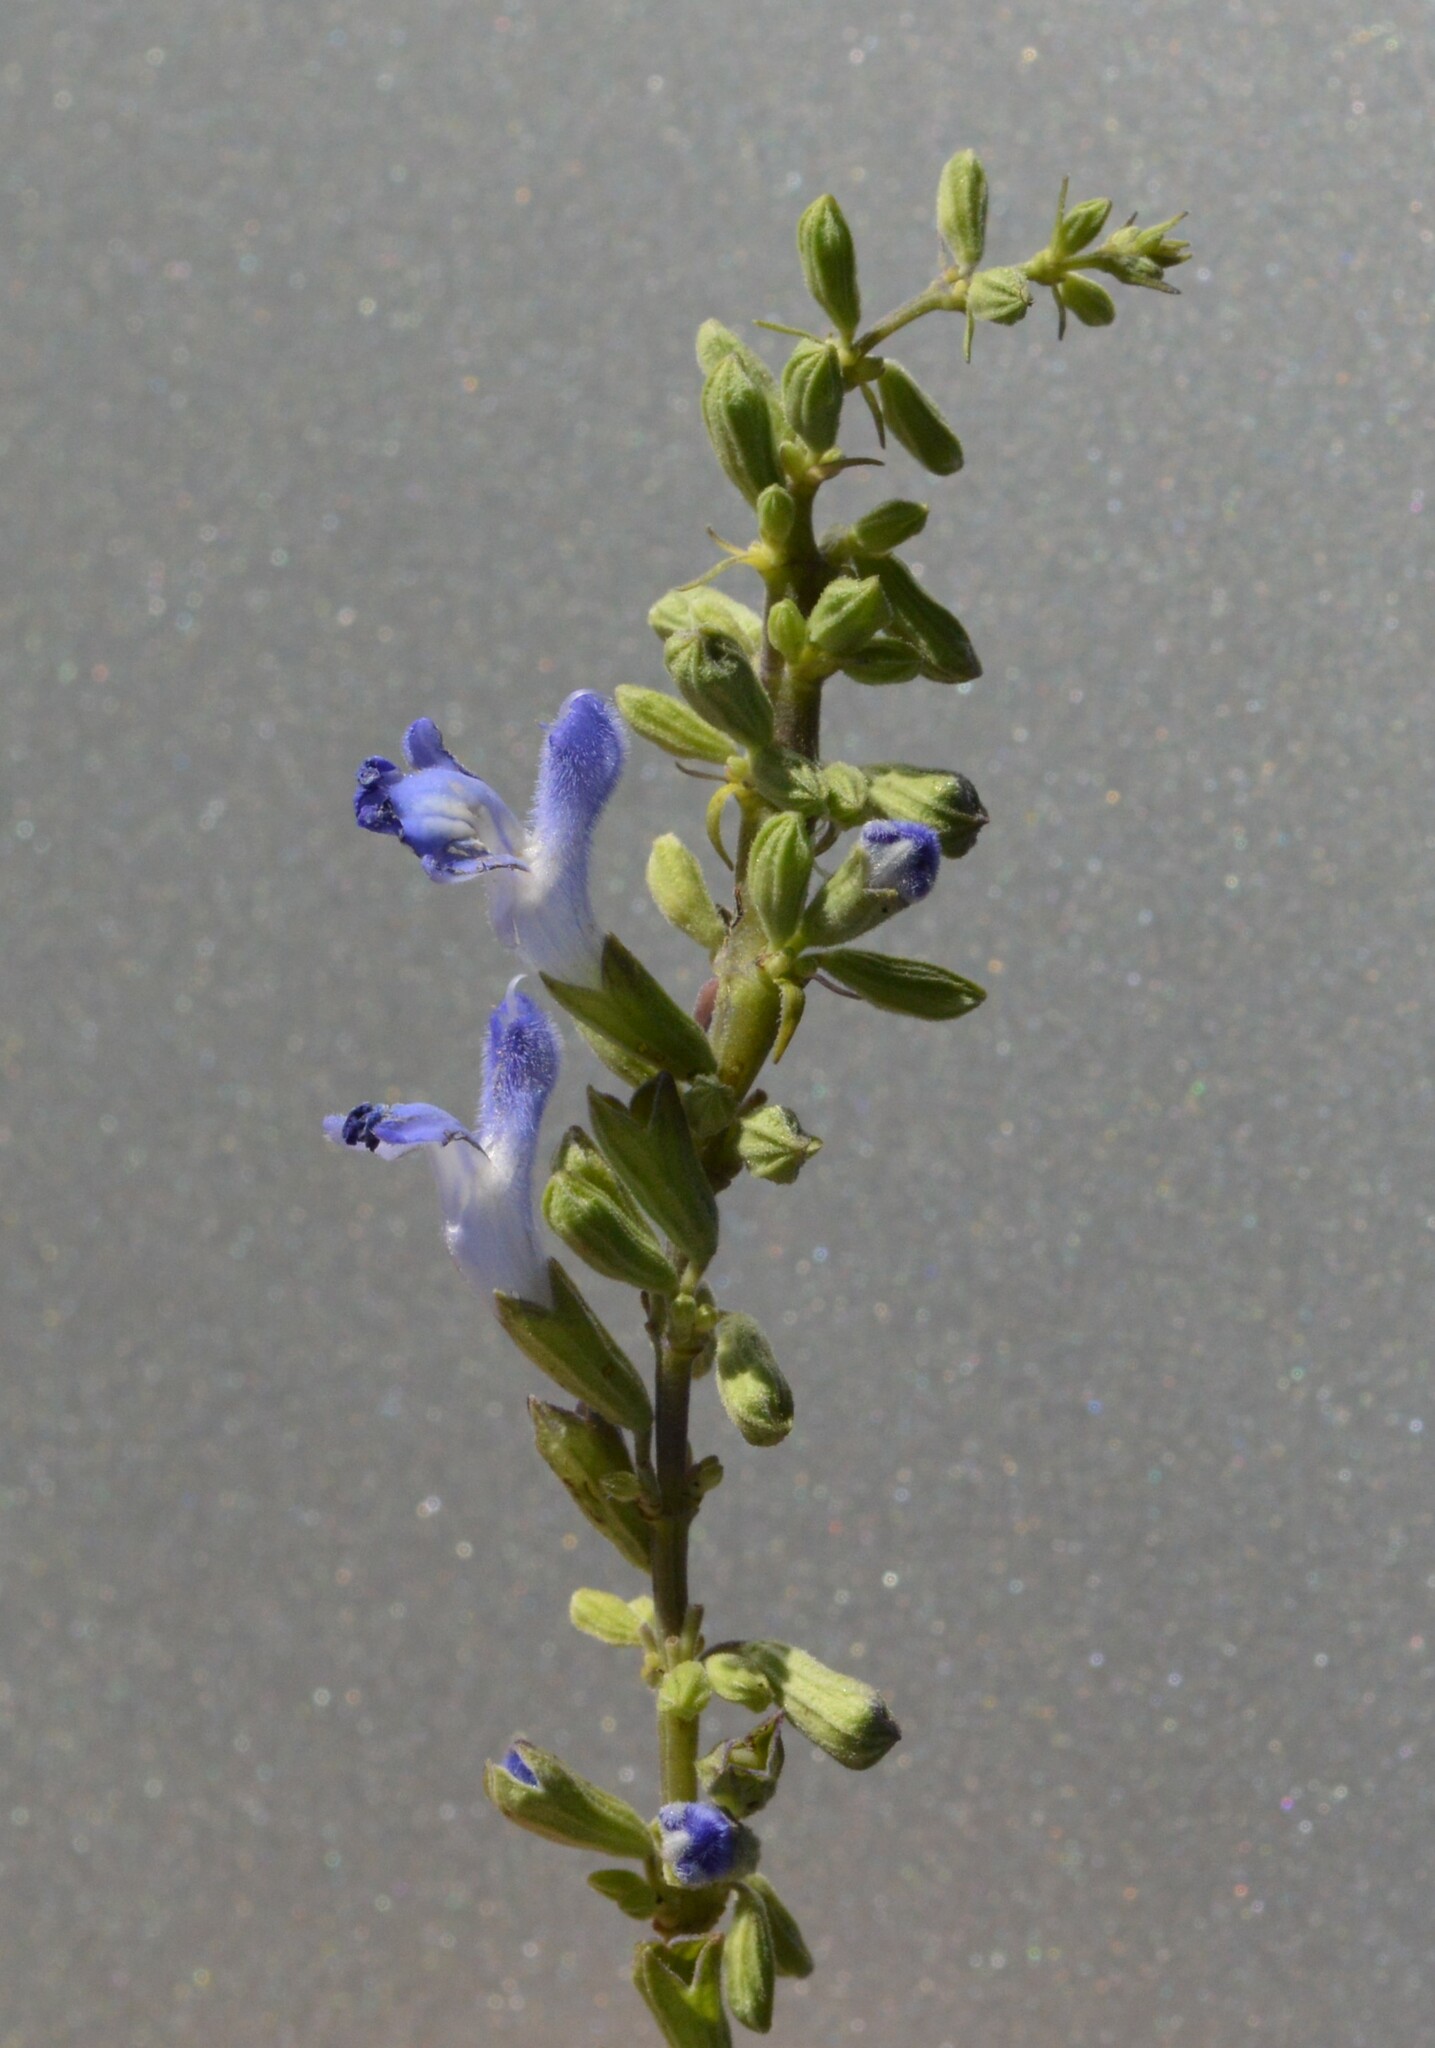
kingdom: Plantae
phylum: Tracheophyta
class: Magnoliopsida
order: Lamiales
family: Lamiaceae
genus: Salvia
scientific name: Salvia azurea
